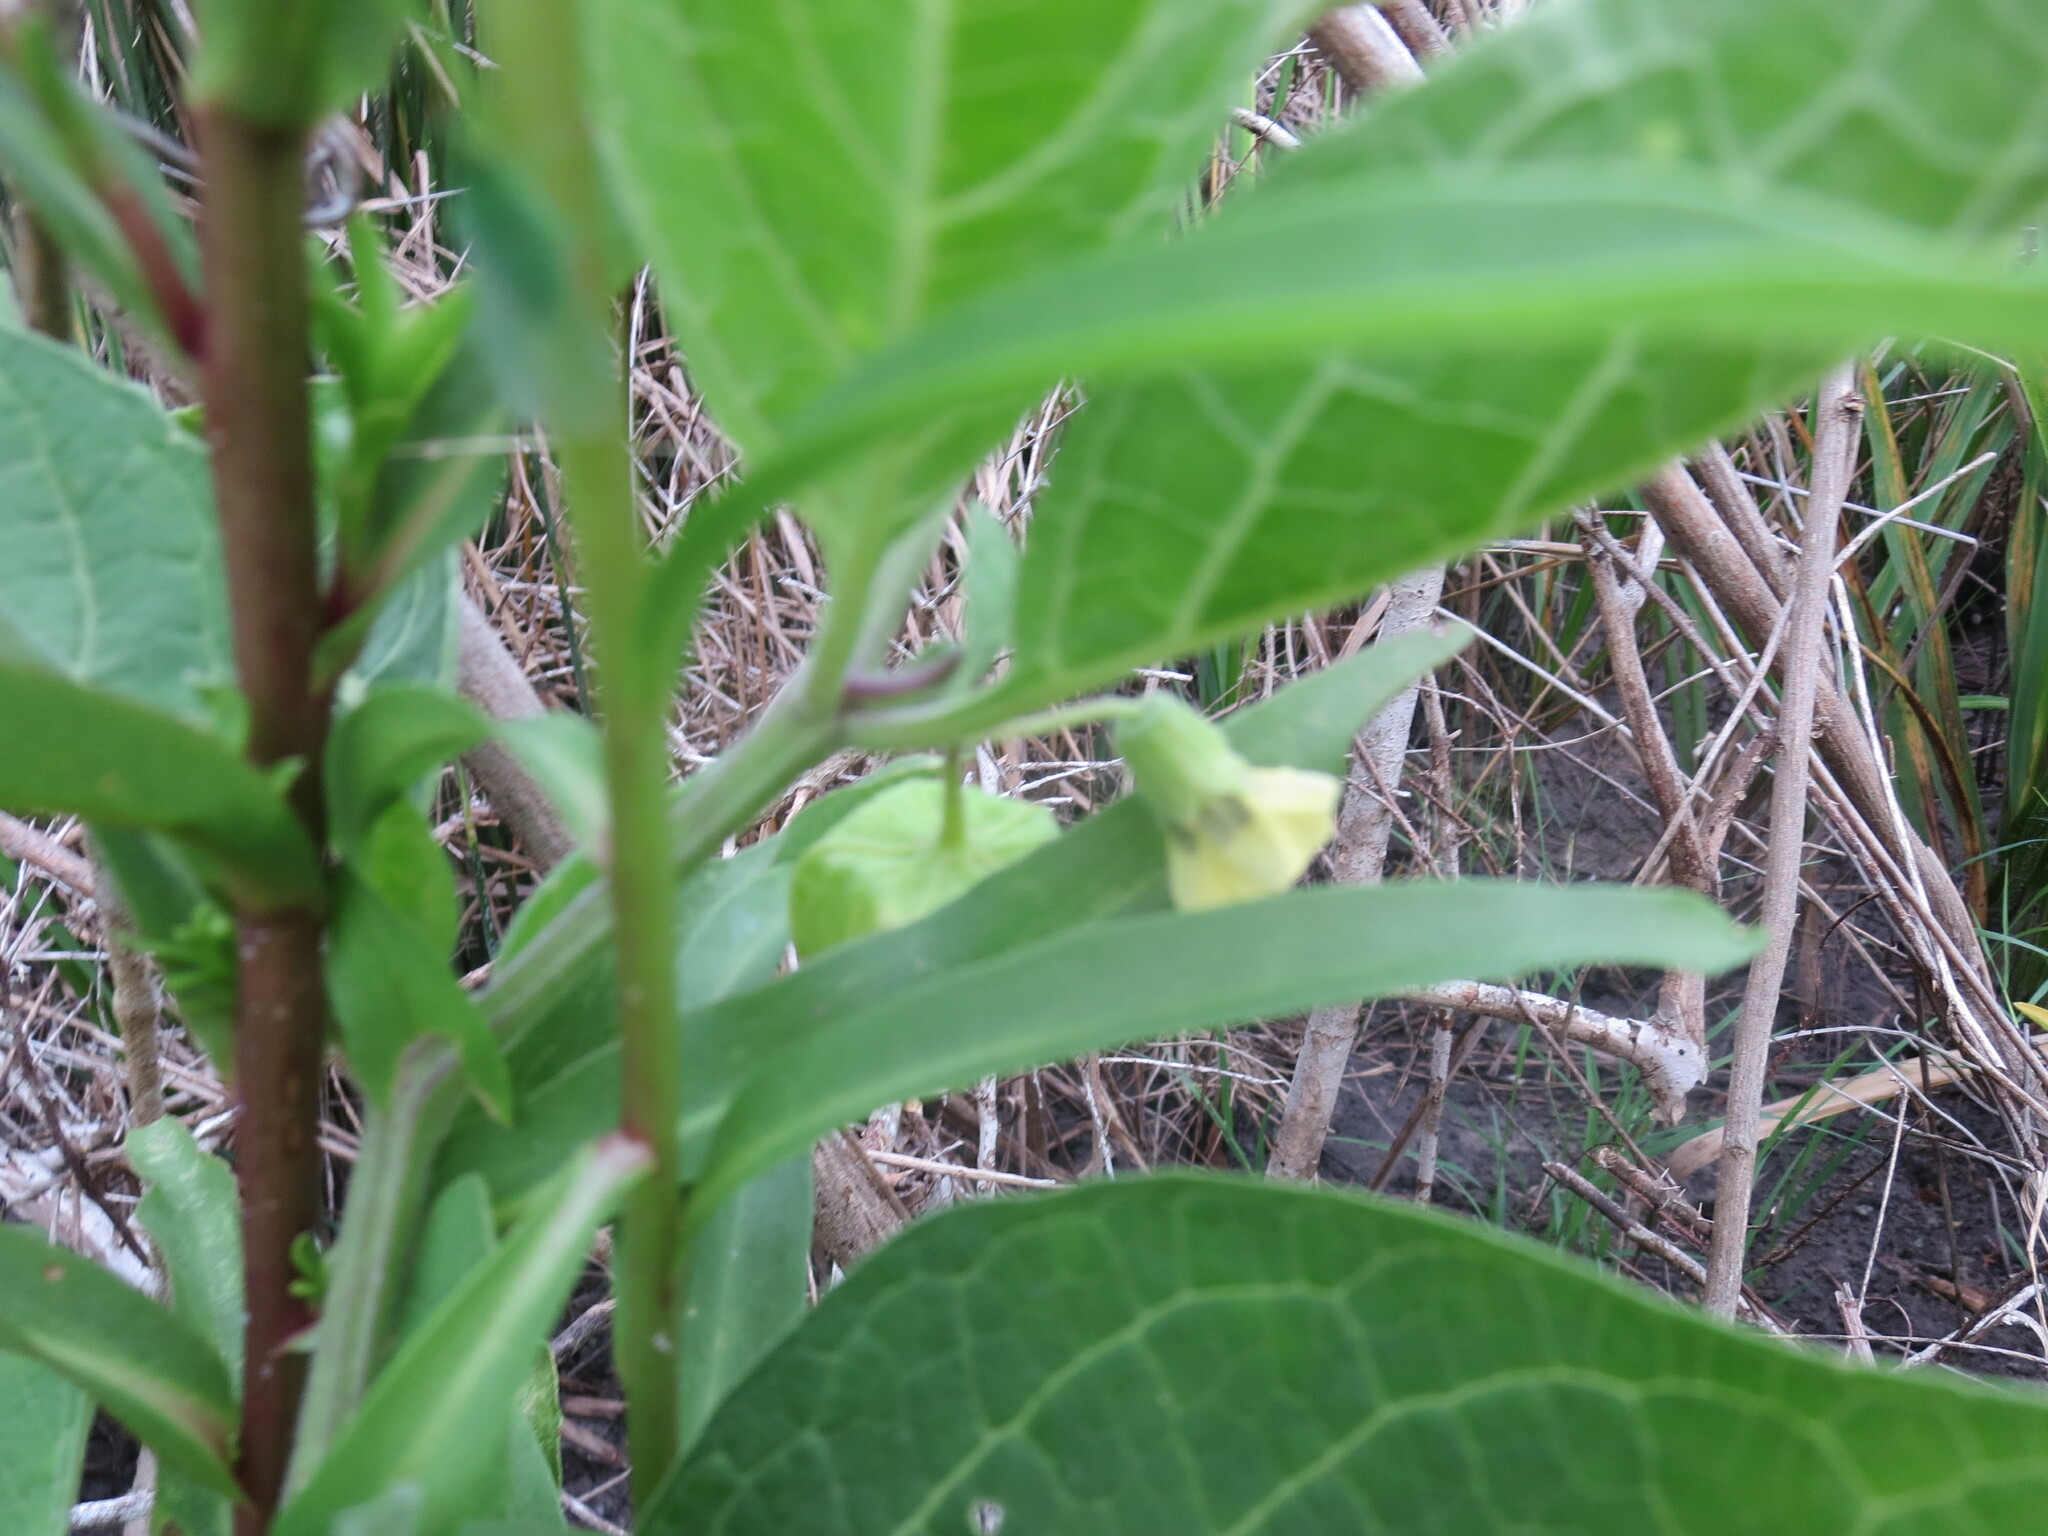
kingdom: Plantae
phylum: Tracheophyta
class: Magnoliopsida
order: Solanales
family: Solanaceae
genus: Physalis
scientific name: Physalis walteri
